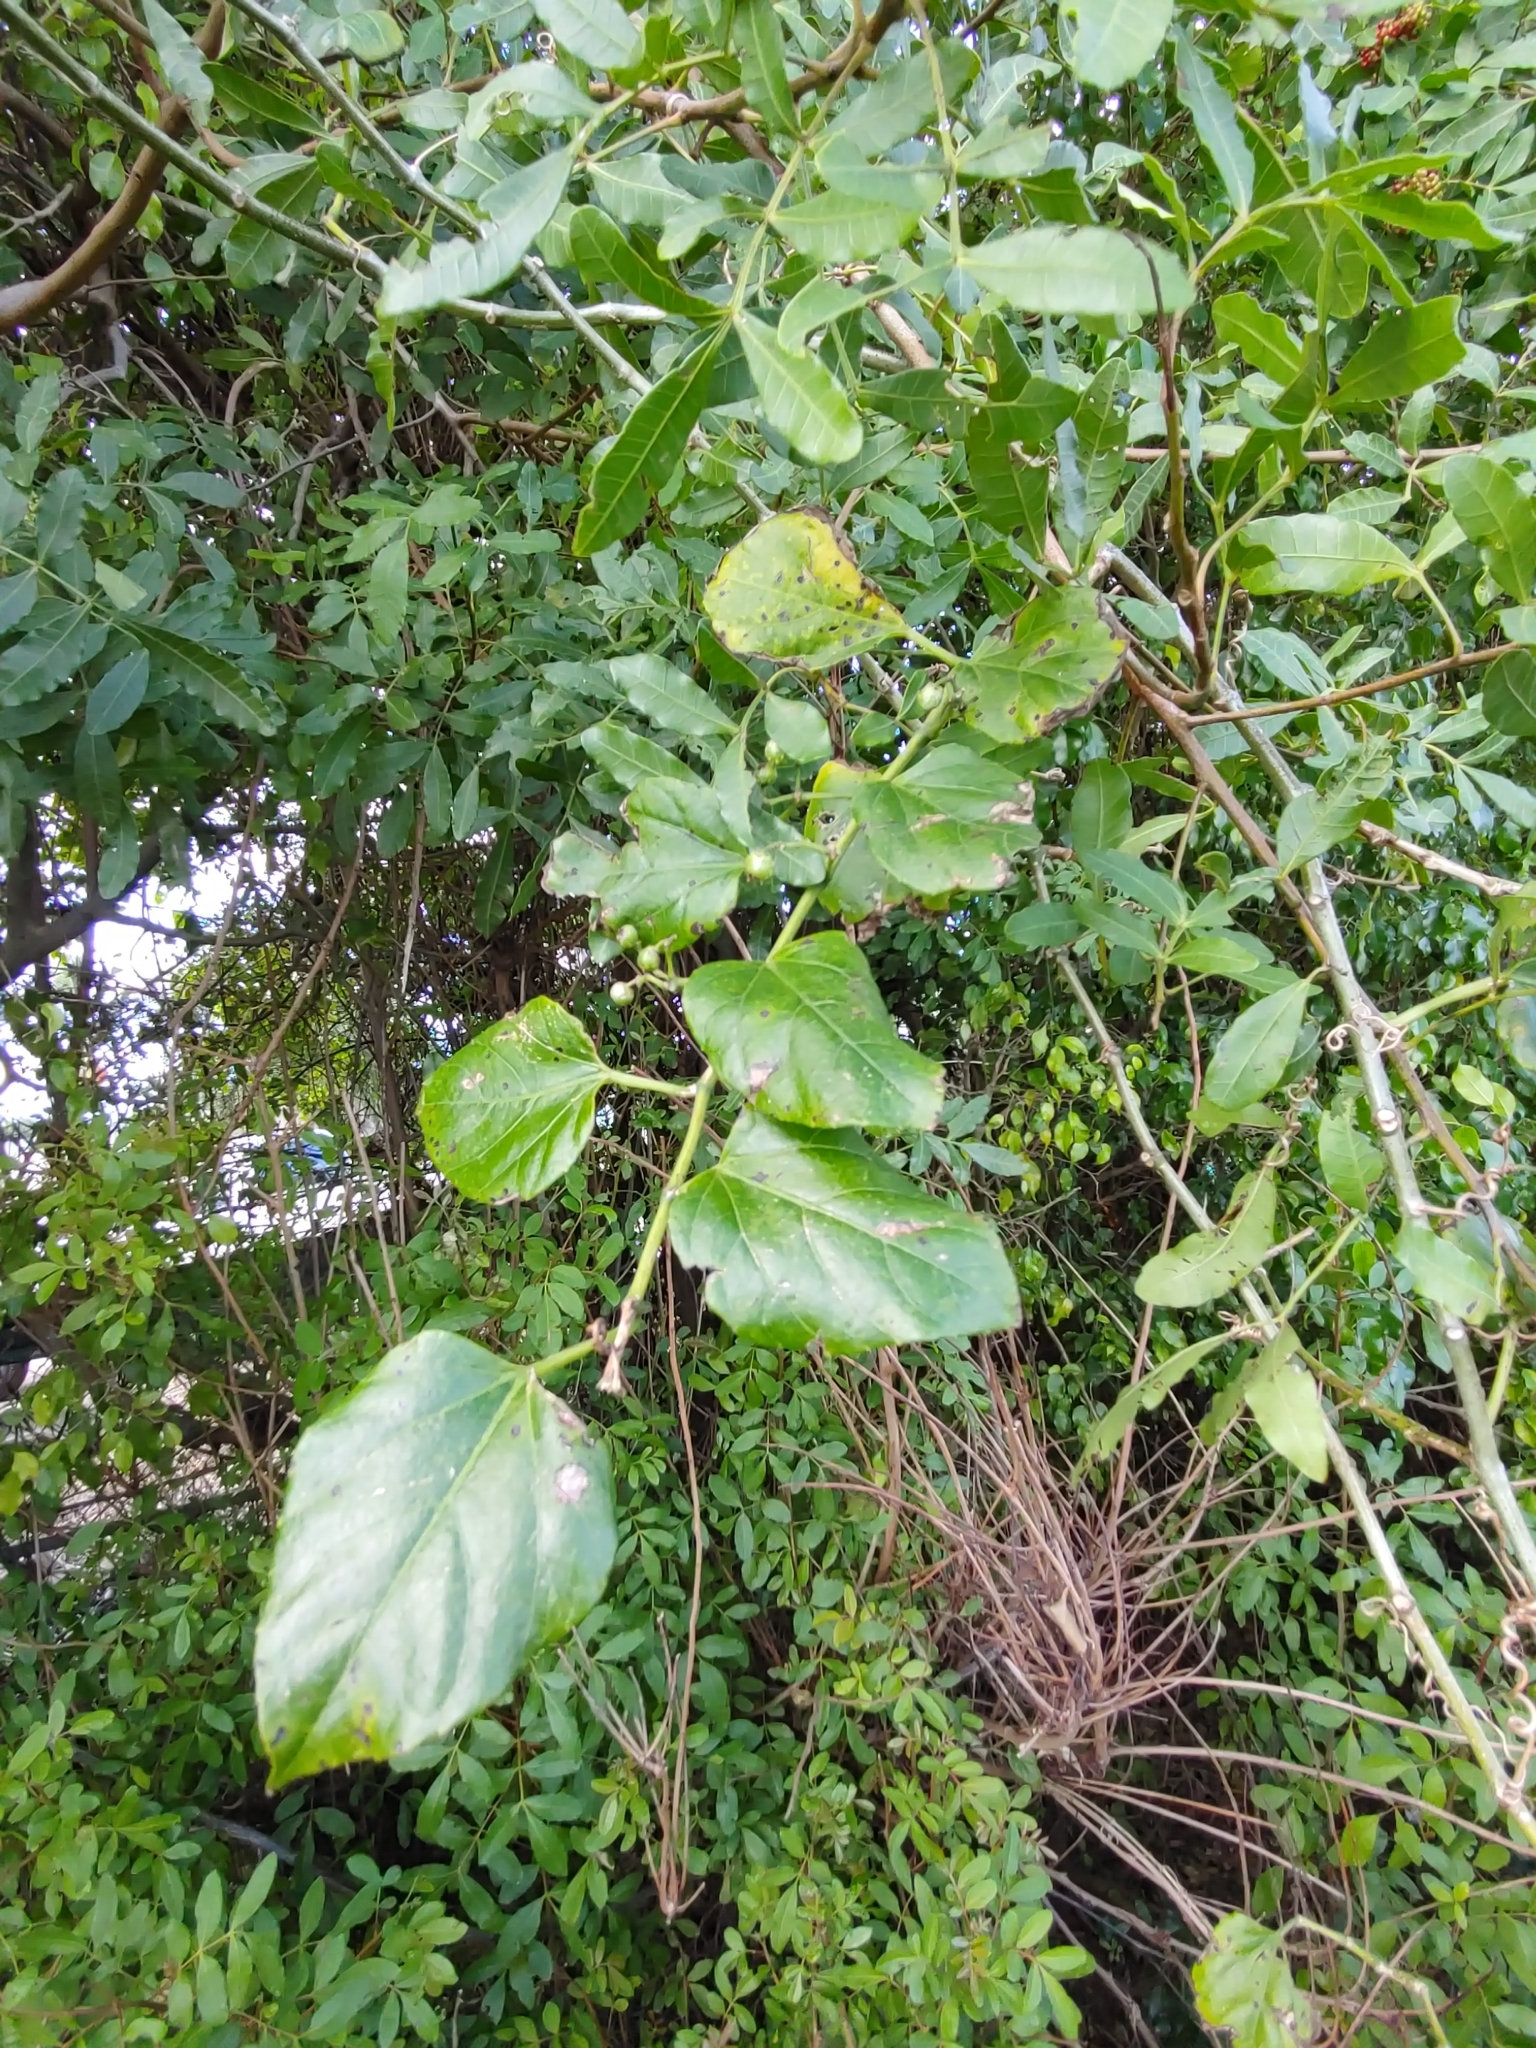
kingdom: Plantae
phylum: Tracheophyta
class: Magnoliopsida
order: Vitales
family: Vitaceae
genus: Cissus
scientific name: Cissus verticillata
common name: Princess vine
